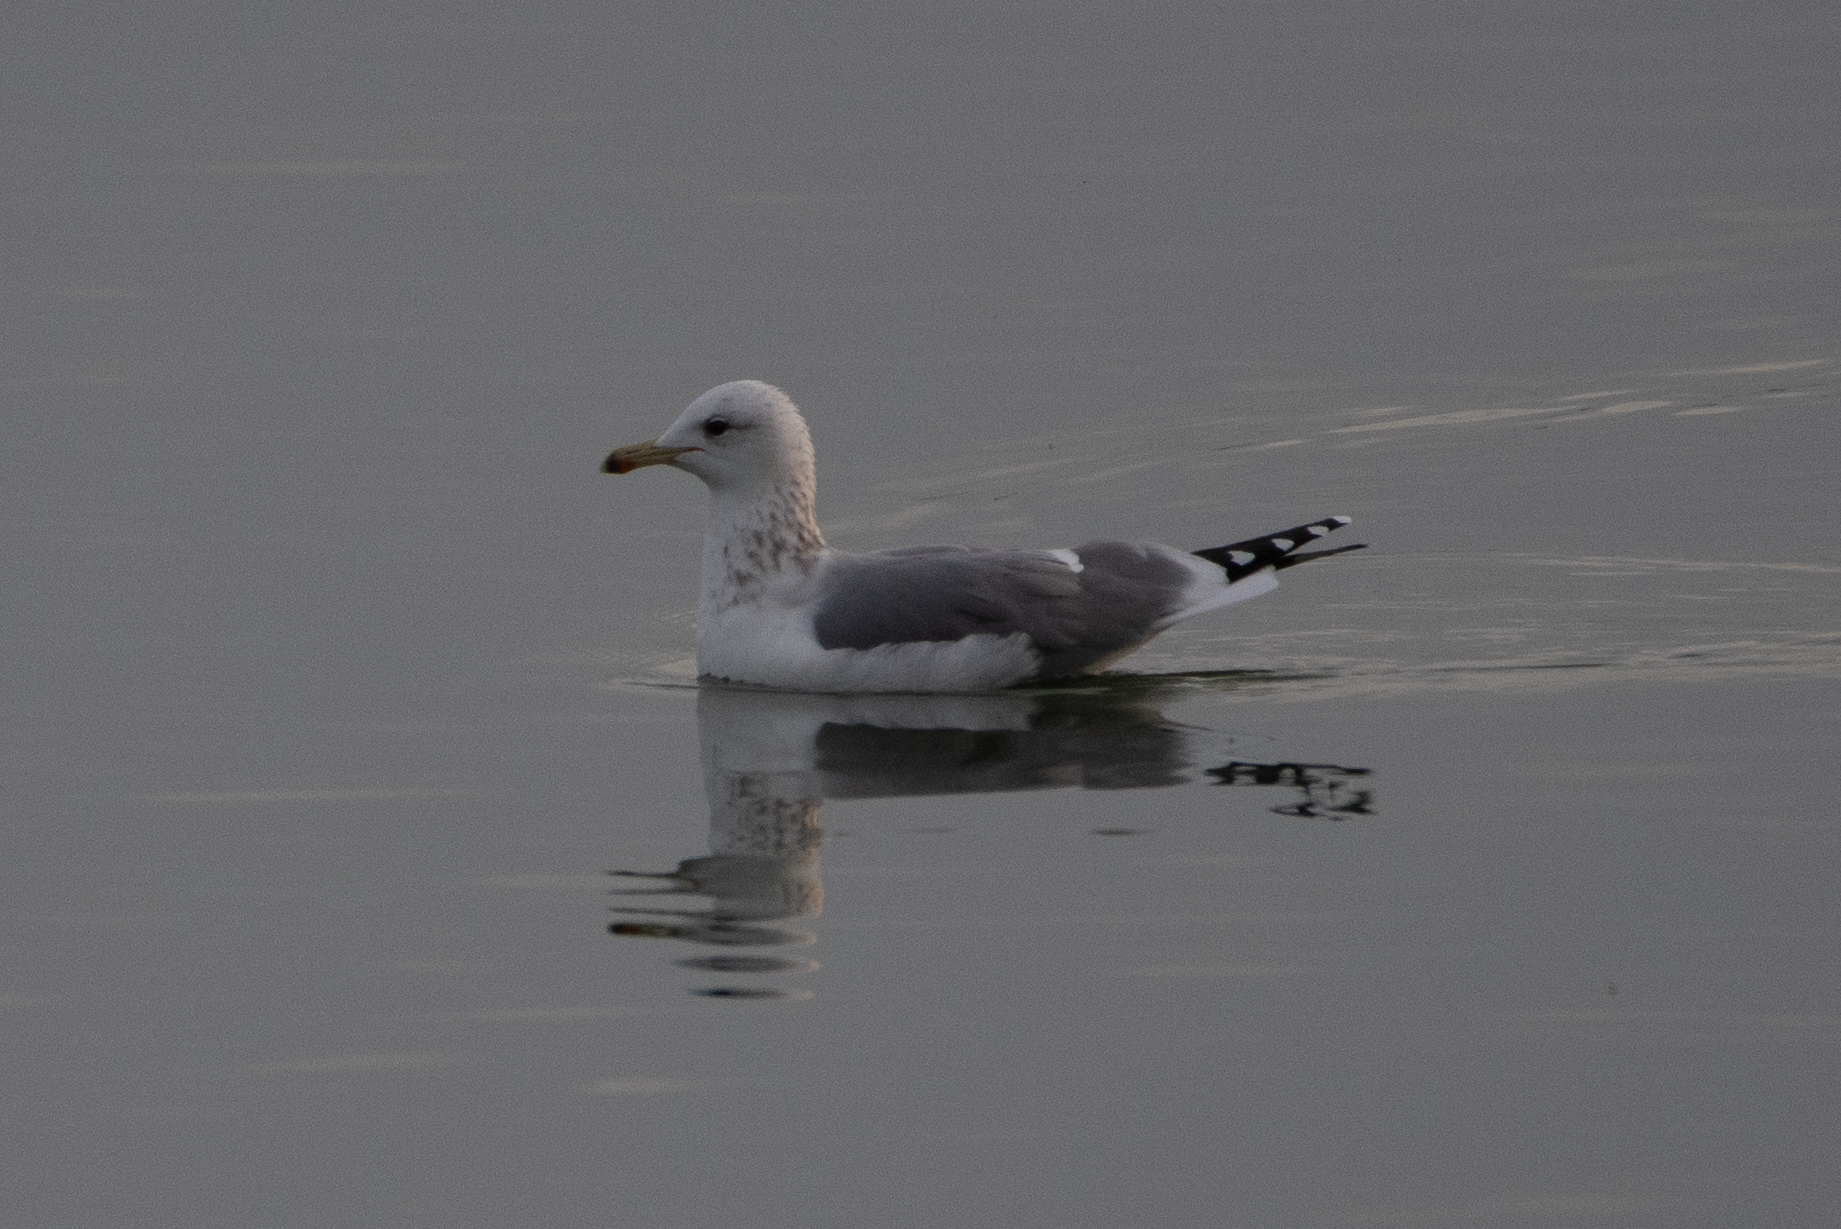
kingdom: Animalia
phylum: Chordata
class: Aves
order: Charadriiformes
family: Laridae
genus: Larus
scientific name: Larus californicus
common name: California gull
